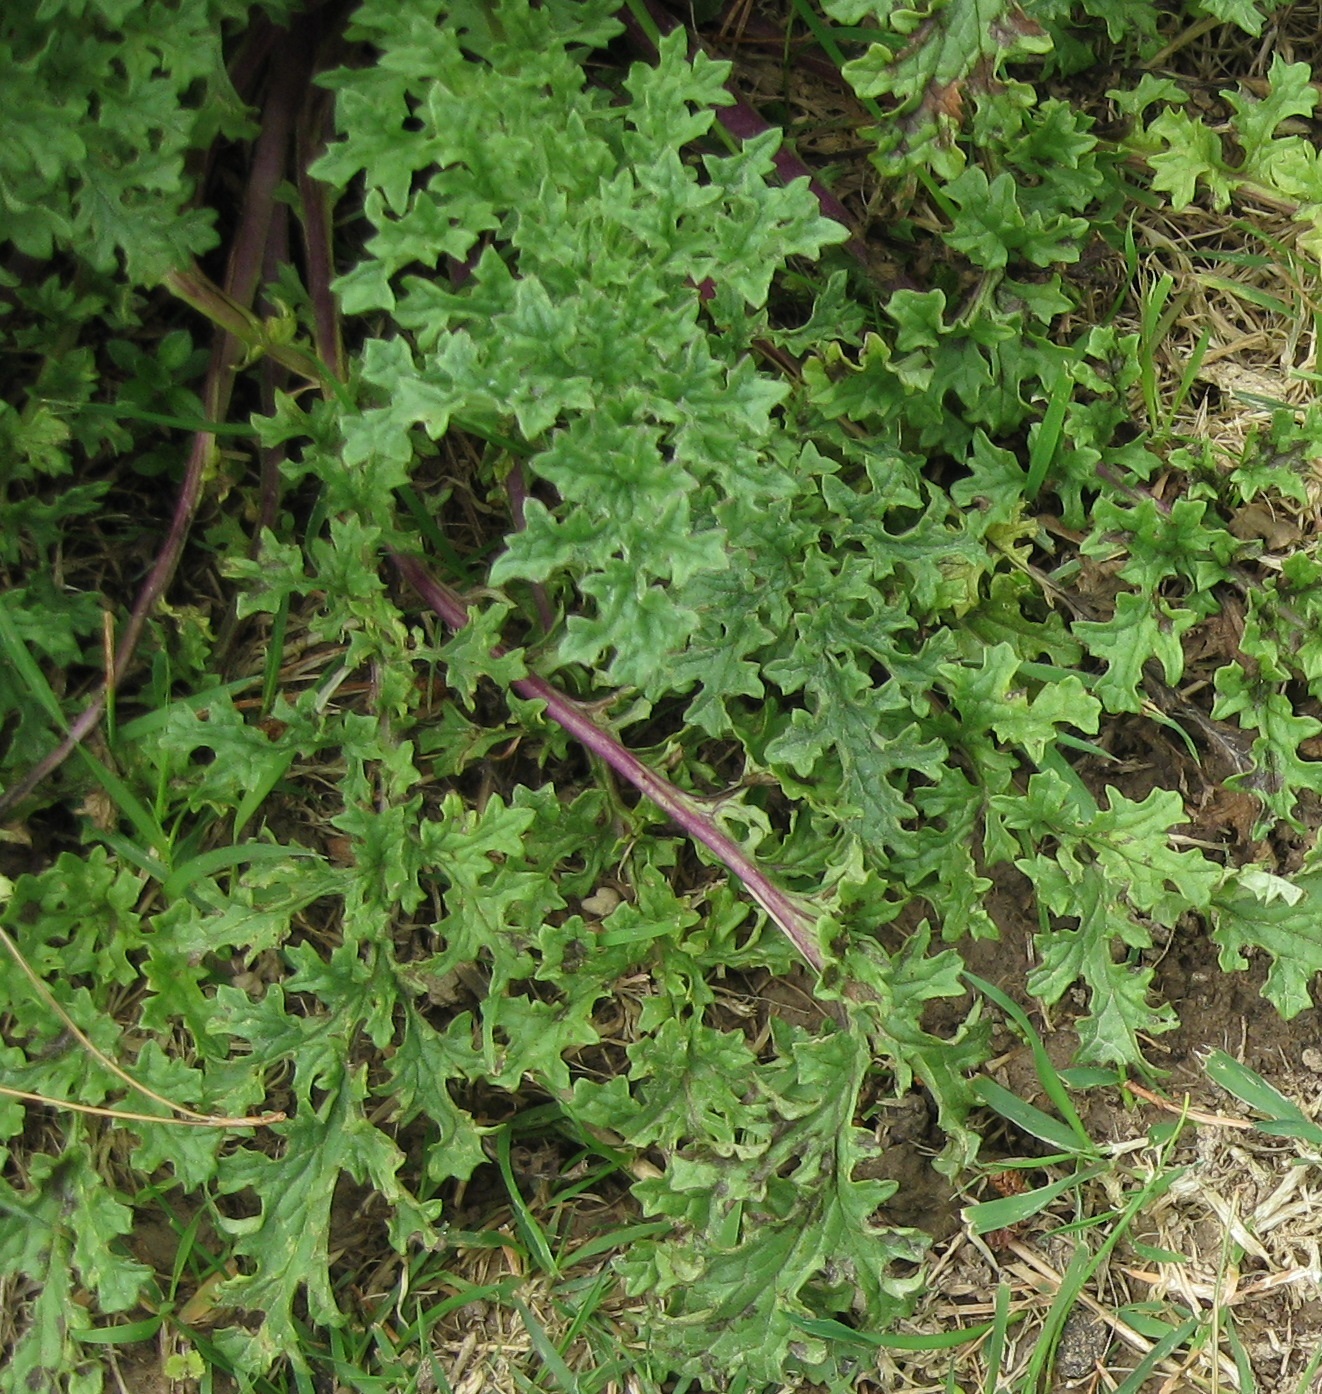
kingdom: Plantae
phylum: Tracheophyta
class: Magnoliopsida
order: Asterales
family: Asteraceae
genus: Jacobaea
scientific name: Jacobaea vulgaris
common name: Stinking willie
